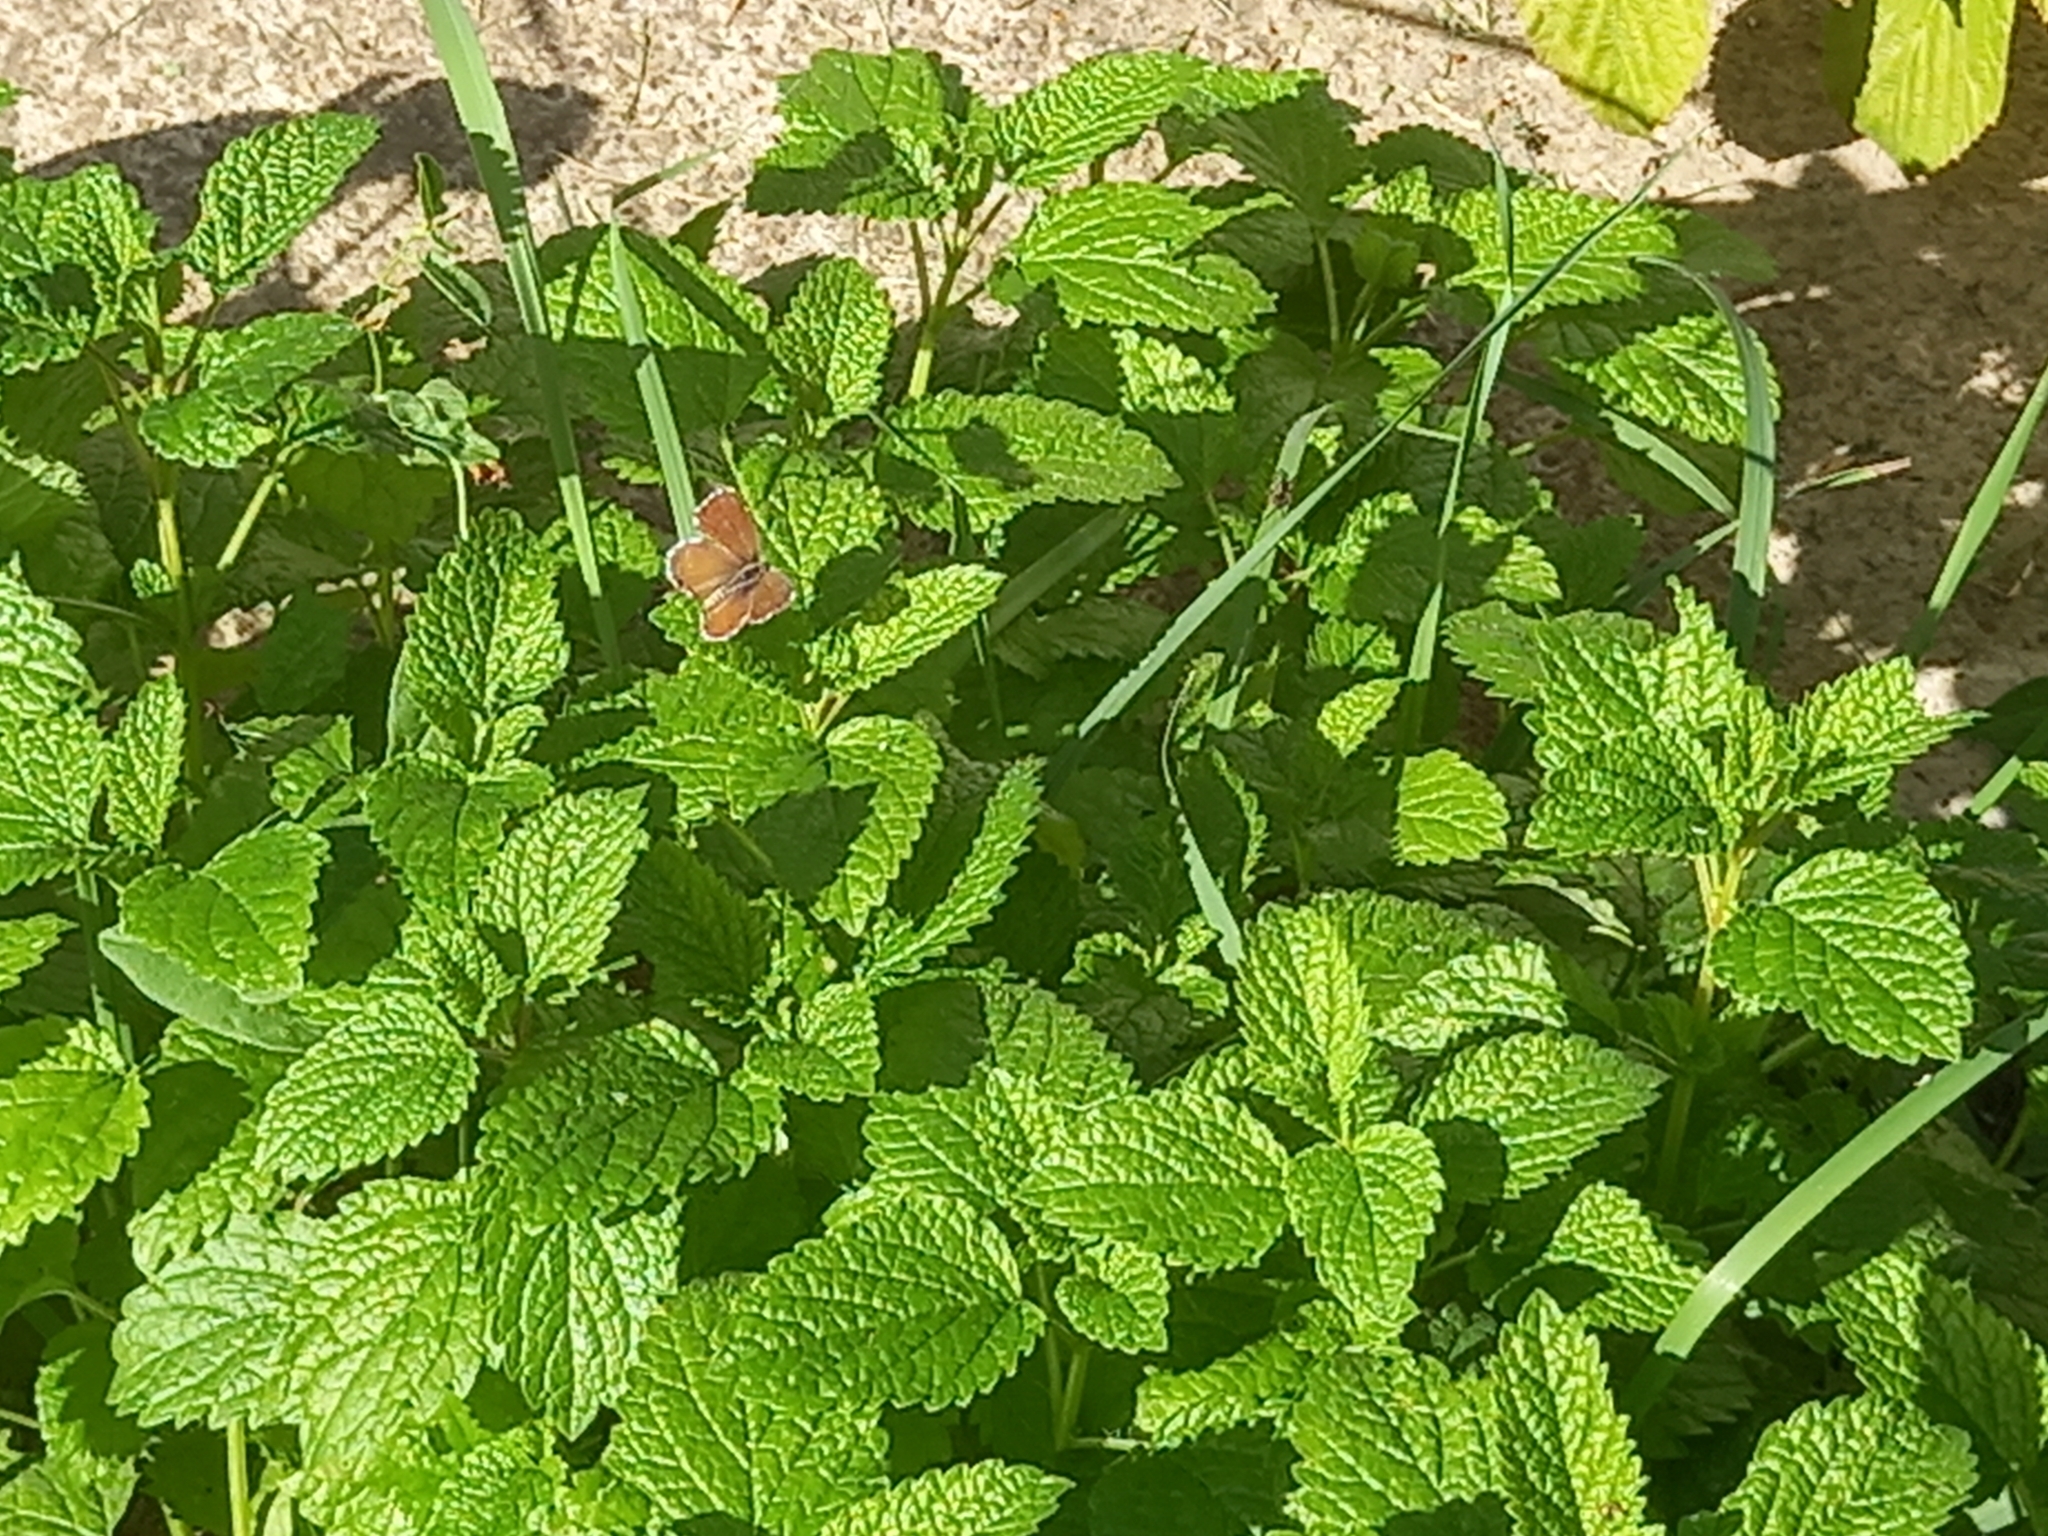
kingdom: Animalia
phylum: Arthropoda
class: Insecta
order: Lepidoptera
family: Lycaenidae
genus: Cacyreus
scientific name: Cacyreus marshalli
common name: Geranium bronze
